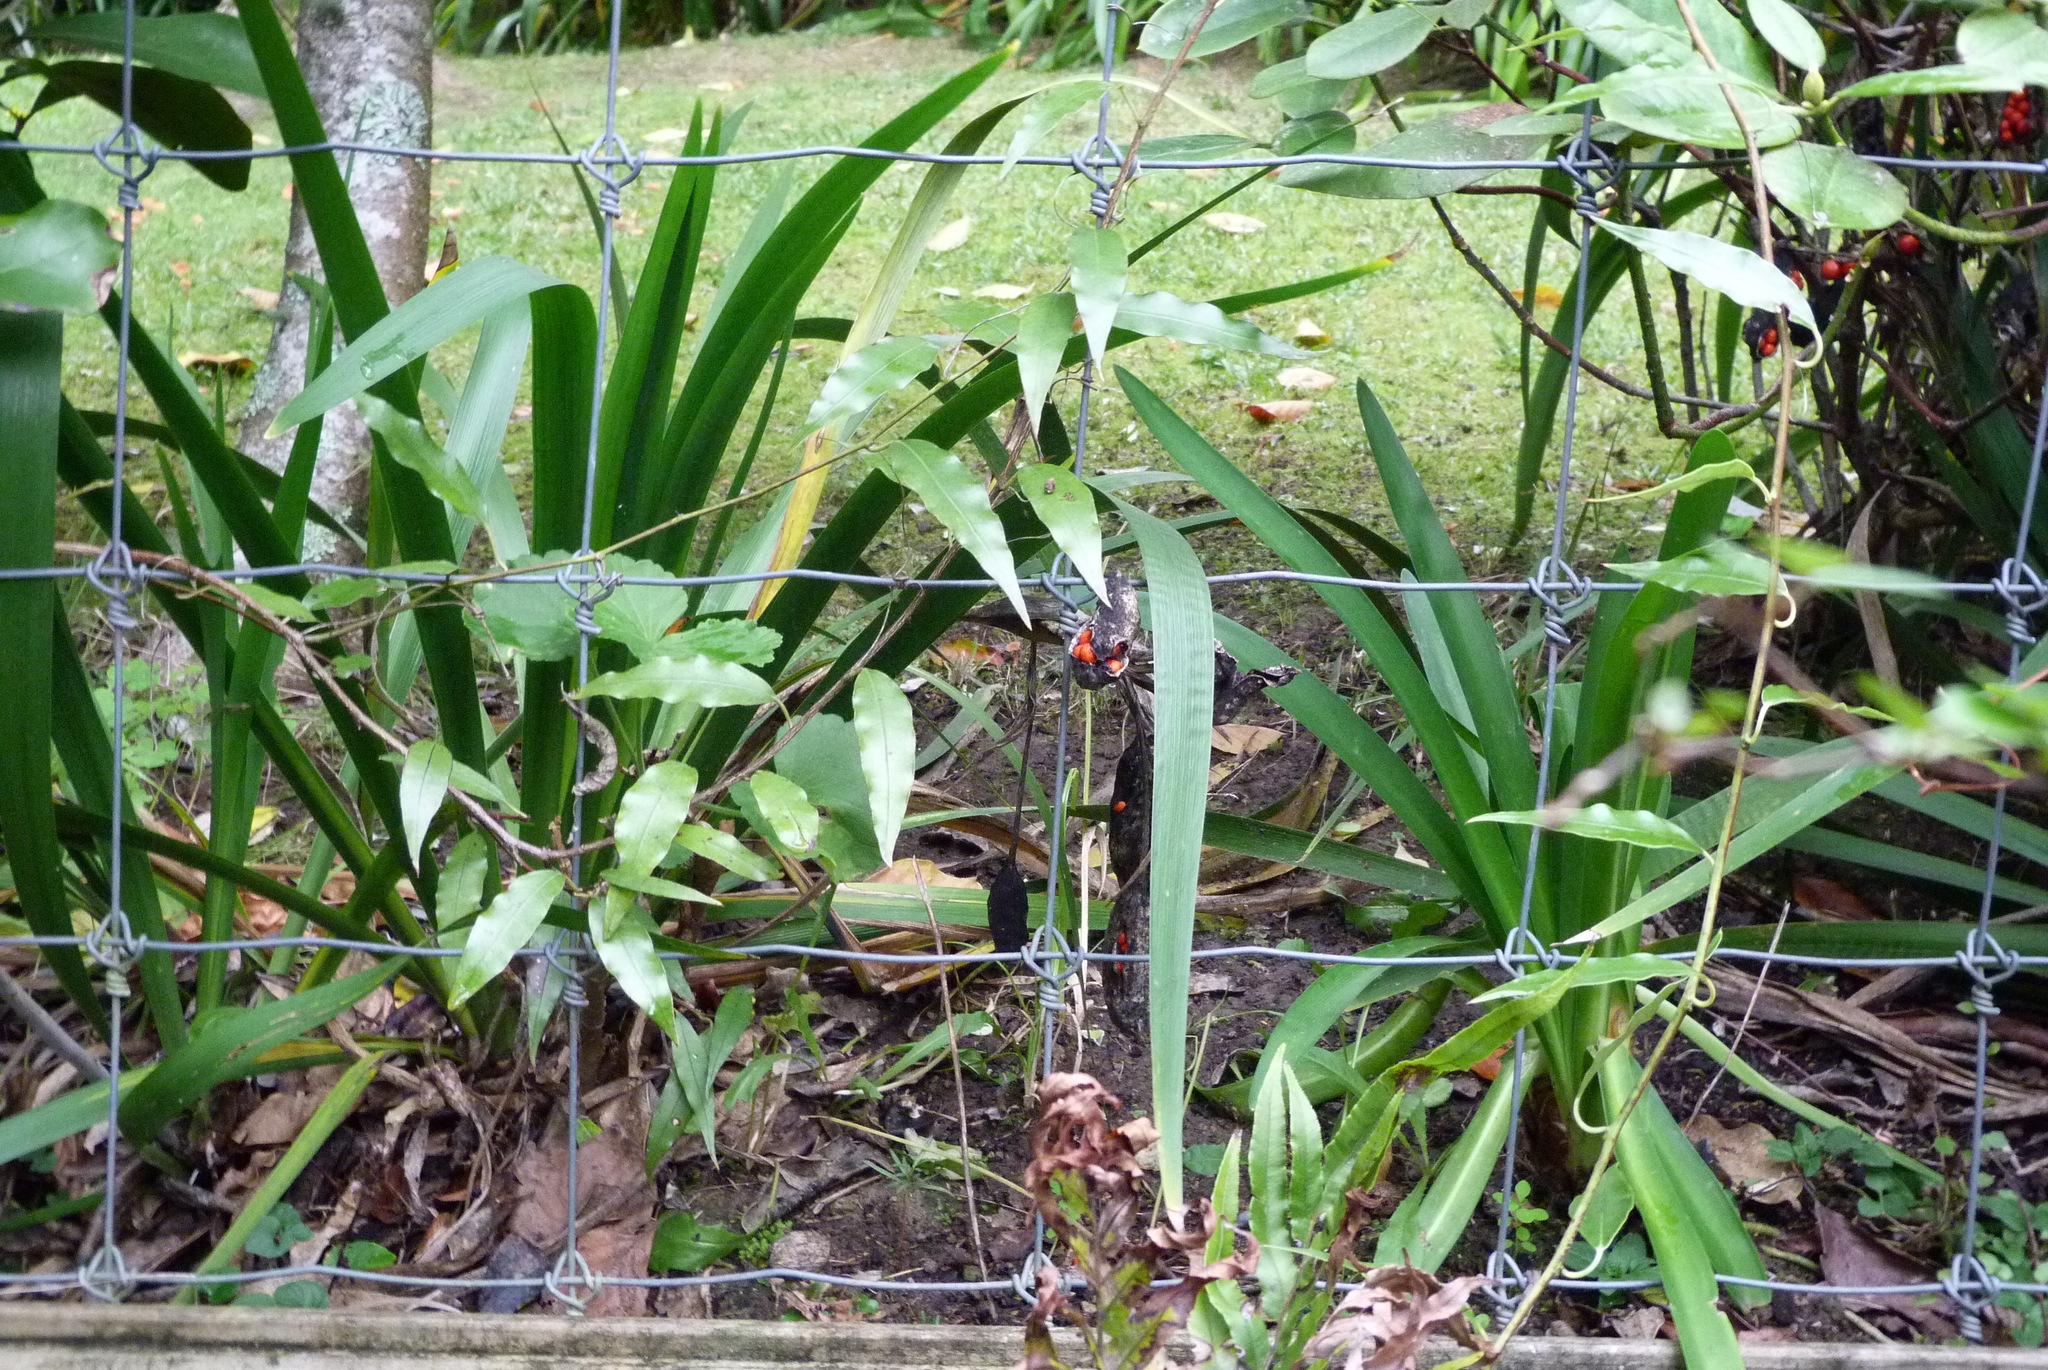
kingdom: Plantae
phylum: Tracheophyta
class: Liliopsida
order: Asparagales
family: Iridaceae
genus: Iris
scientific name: Iris foetidissima
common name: Stinking iris
